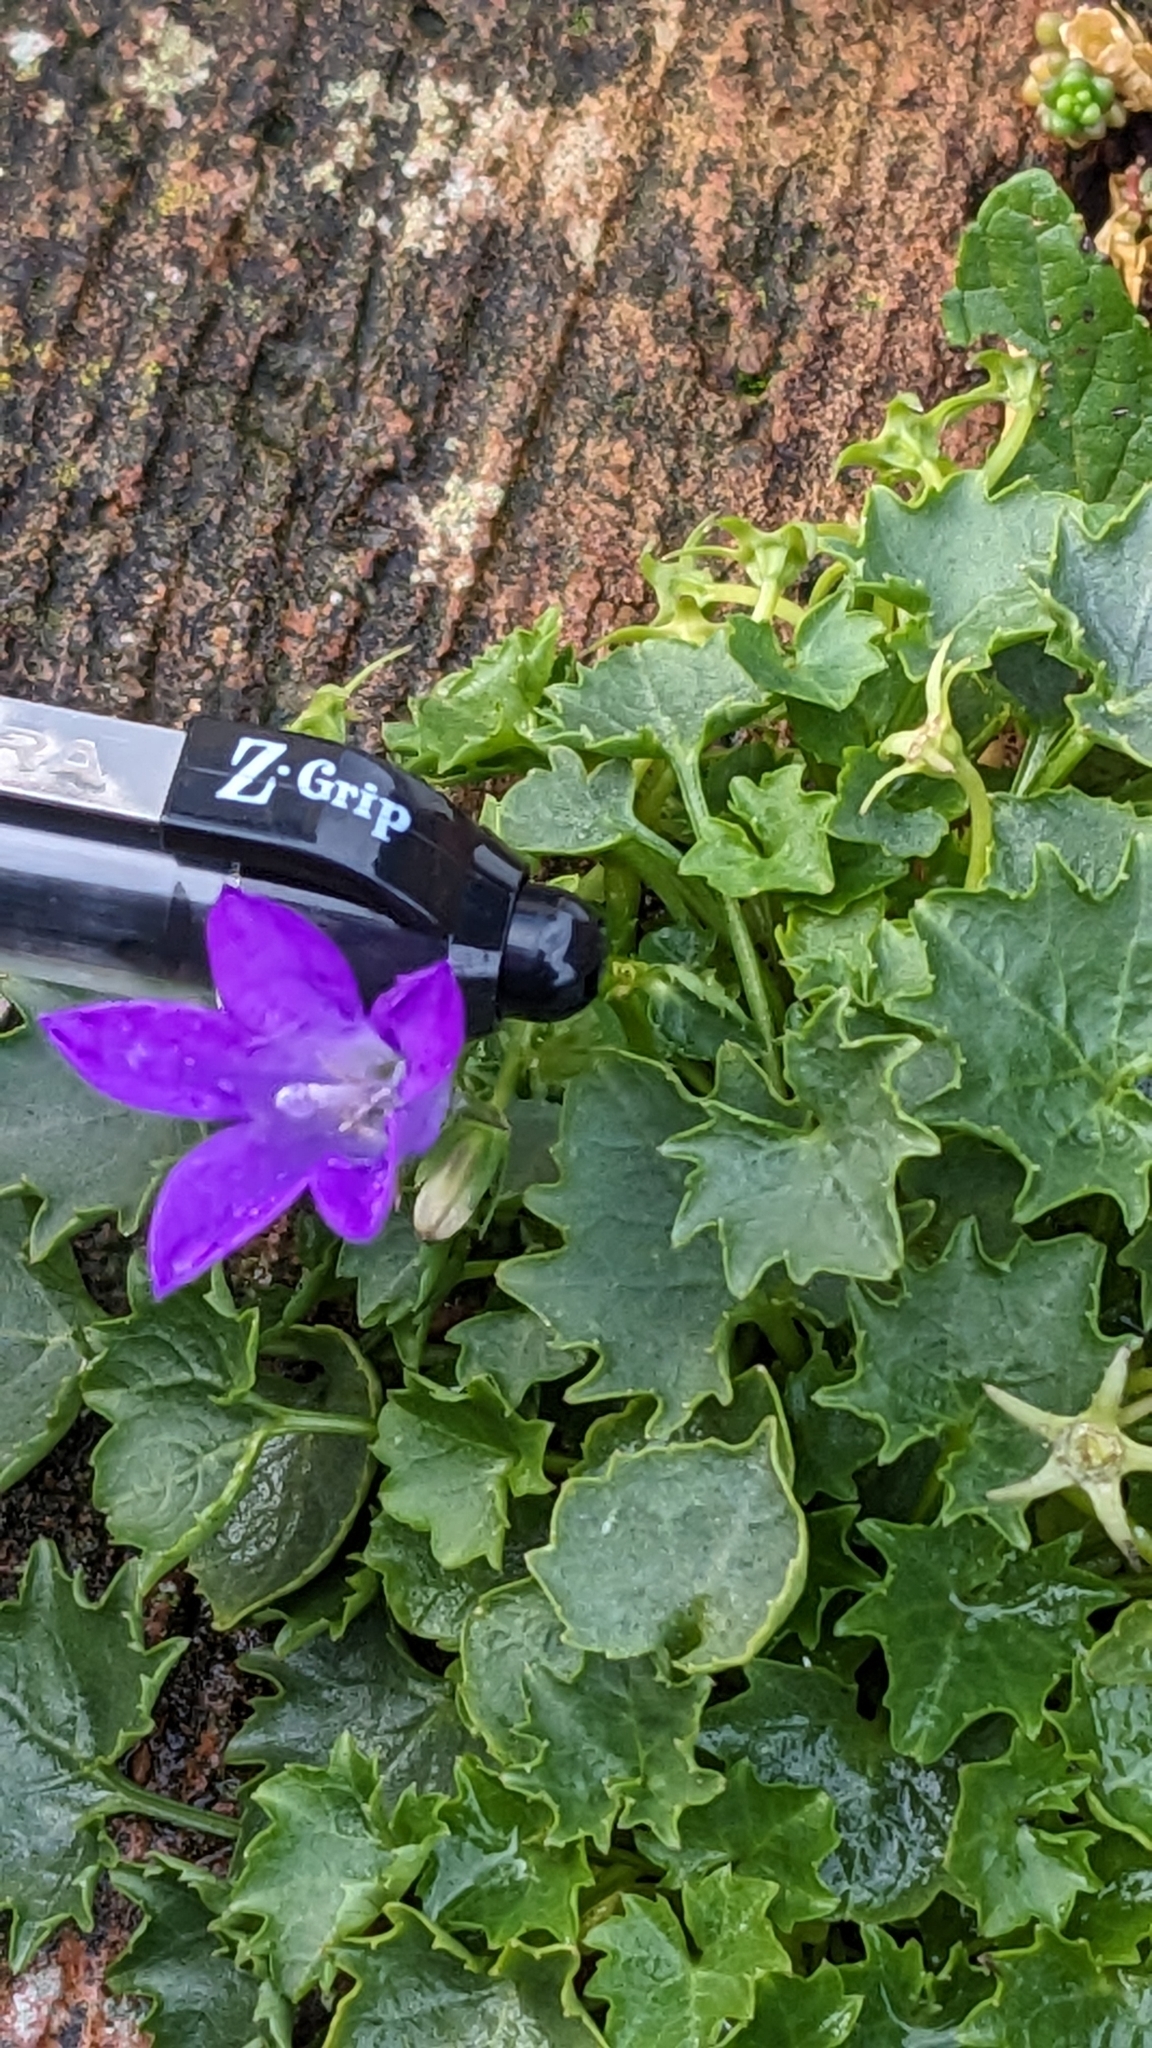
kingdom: Plantae
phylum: Tracheophyta
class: Magnoliopsida
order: Asterales
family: Campanulaceae
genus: Campanula
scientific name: Campanula portenschlagiana
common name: Adria bellflower
